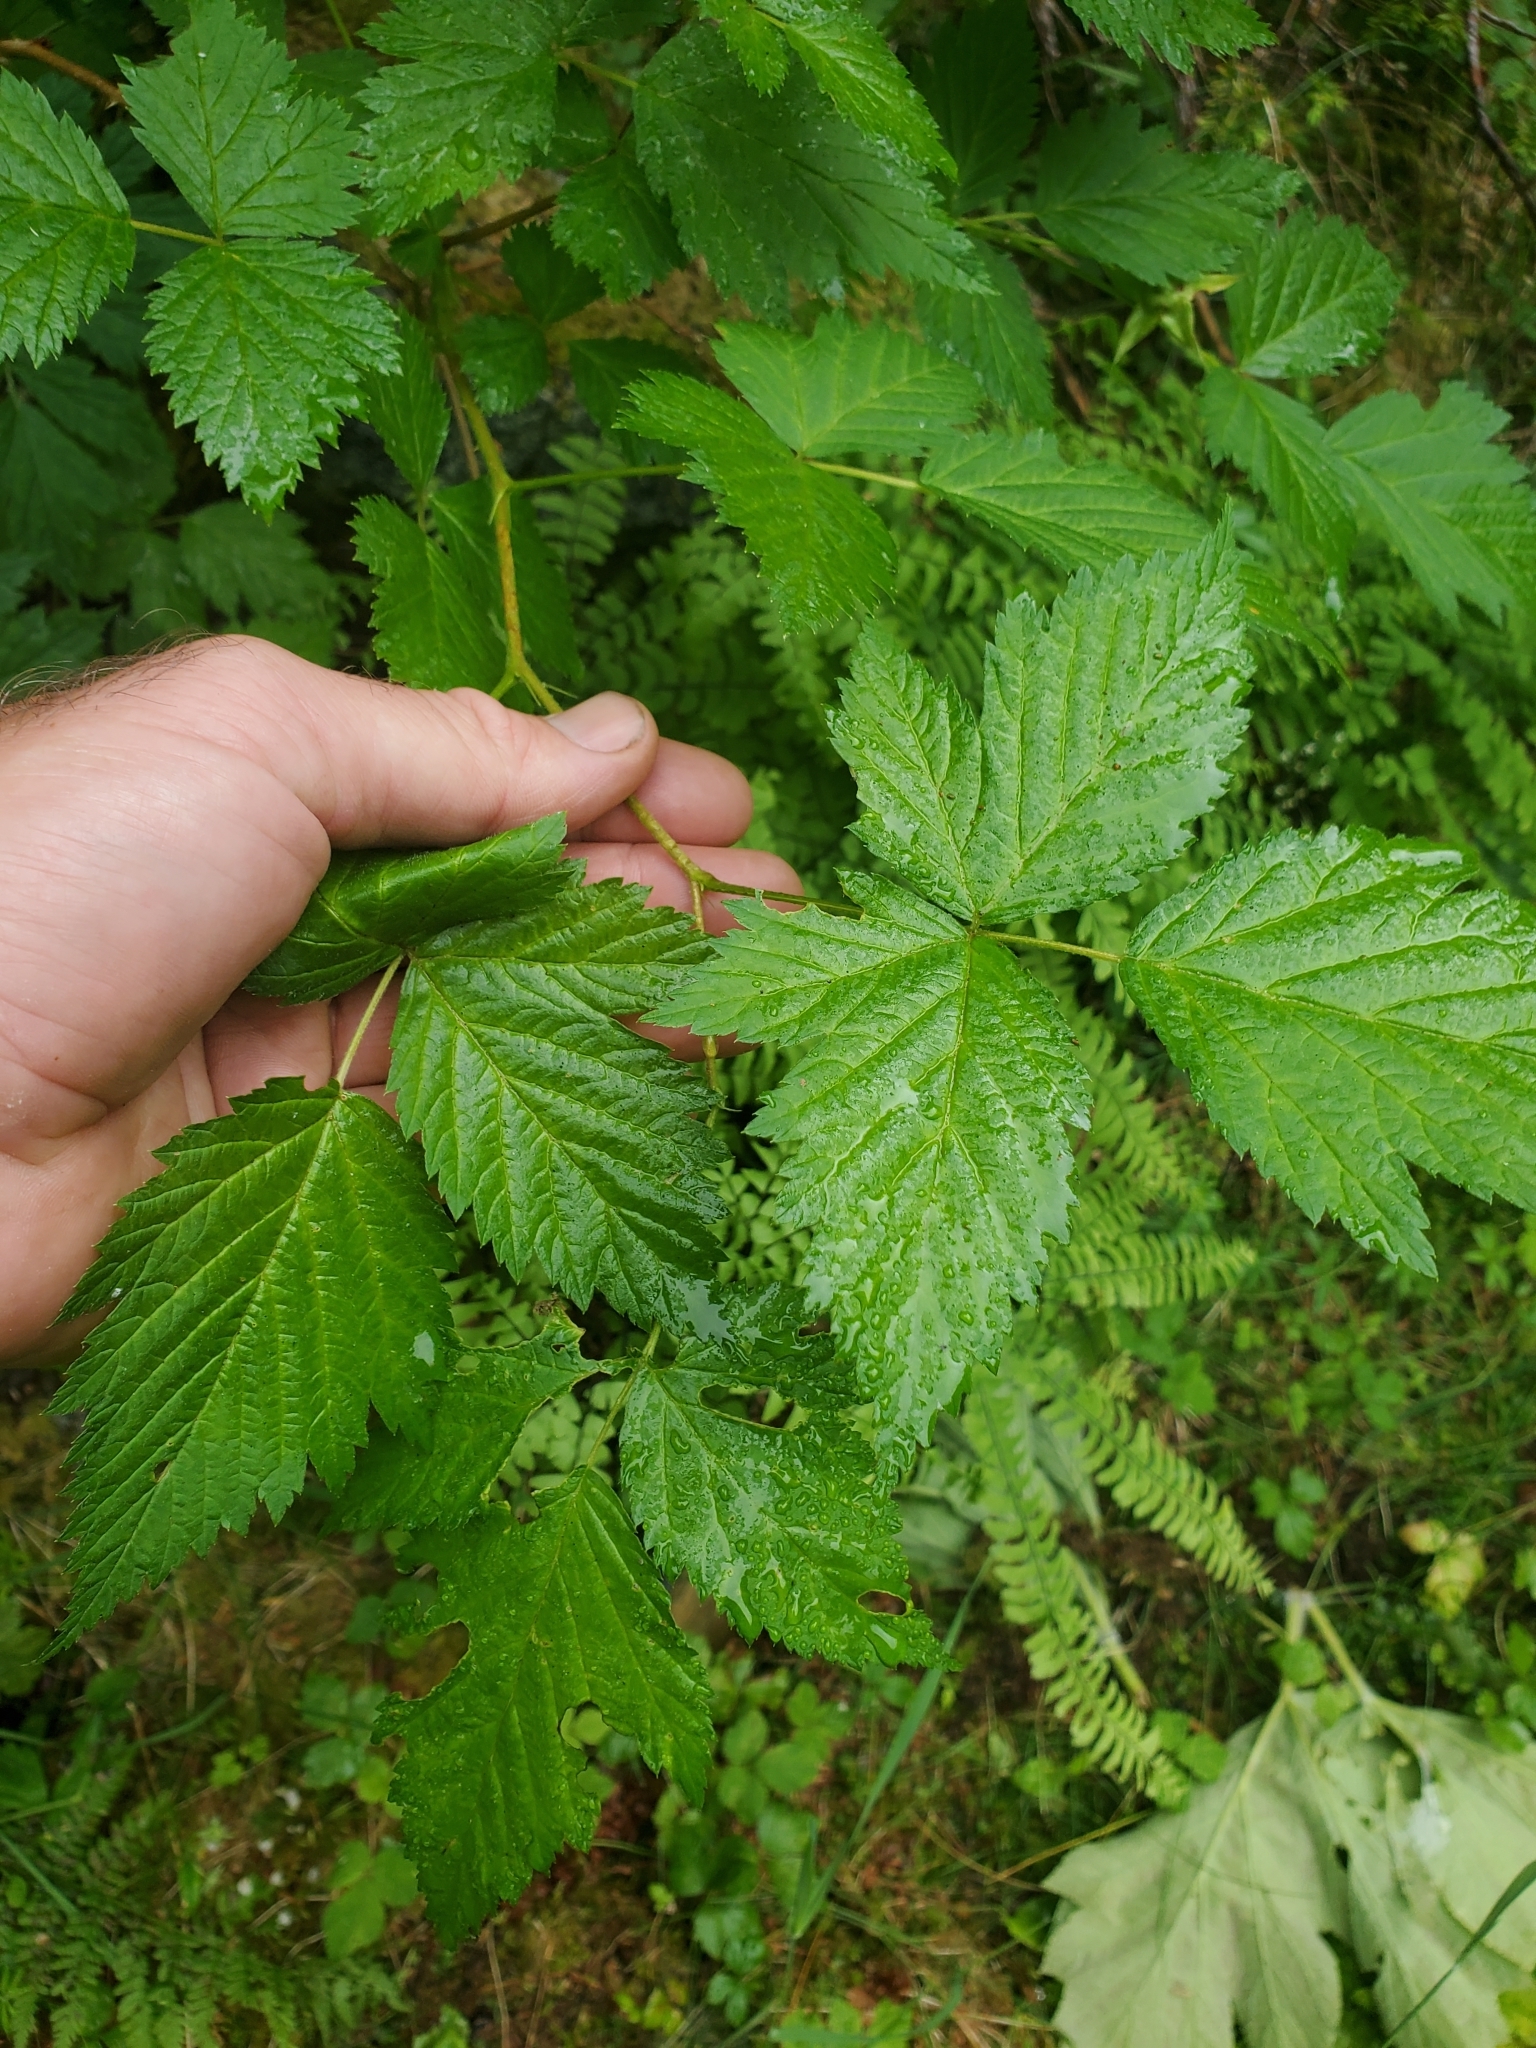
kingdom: Plantae
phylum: Tracheophyta
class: Magnoliopsida
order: Rosales
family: Rosaceae
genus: Rubus
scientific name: Rubus spectabilis
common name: Salmonberry
